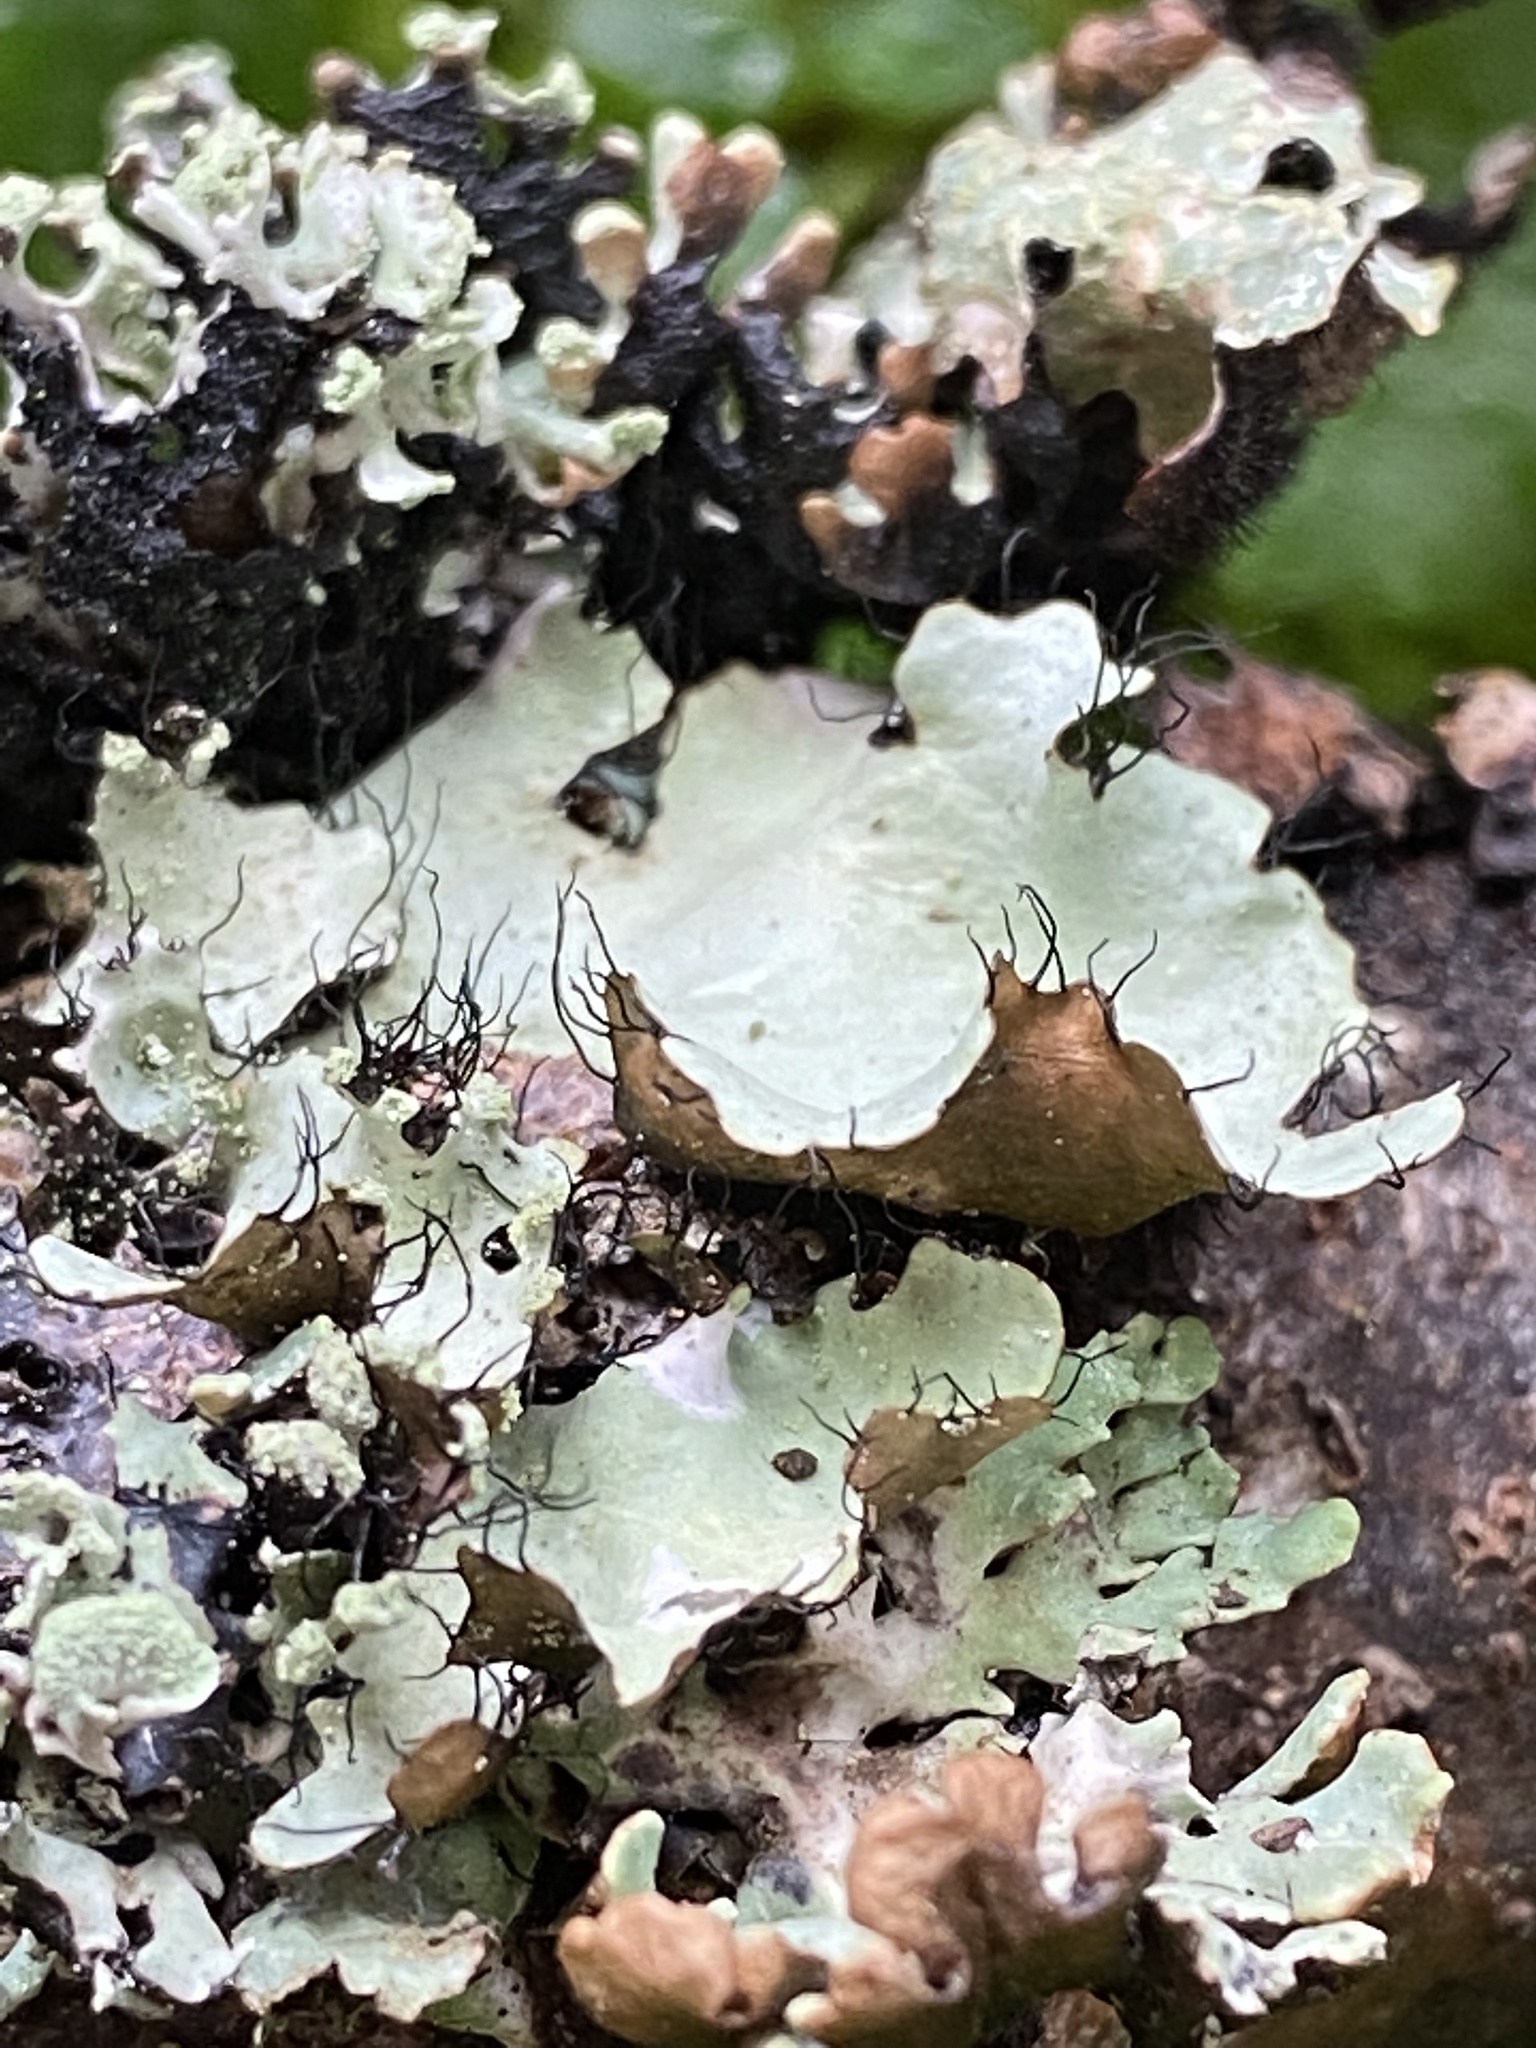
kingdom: Fungi
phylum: Ascomycota
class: Lecanoromycetes
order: Lecanorales
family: Parmeliaceae
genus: Parmotrema
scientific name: Parmotrema arnoldii
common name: Arnold's parmotrema lichen
